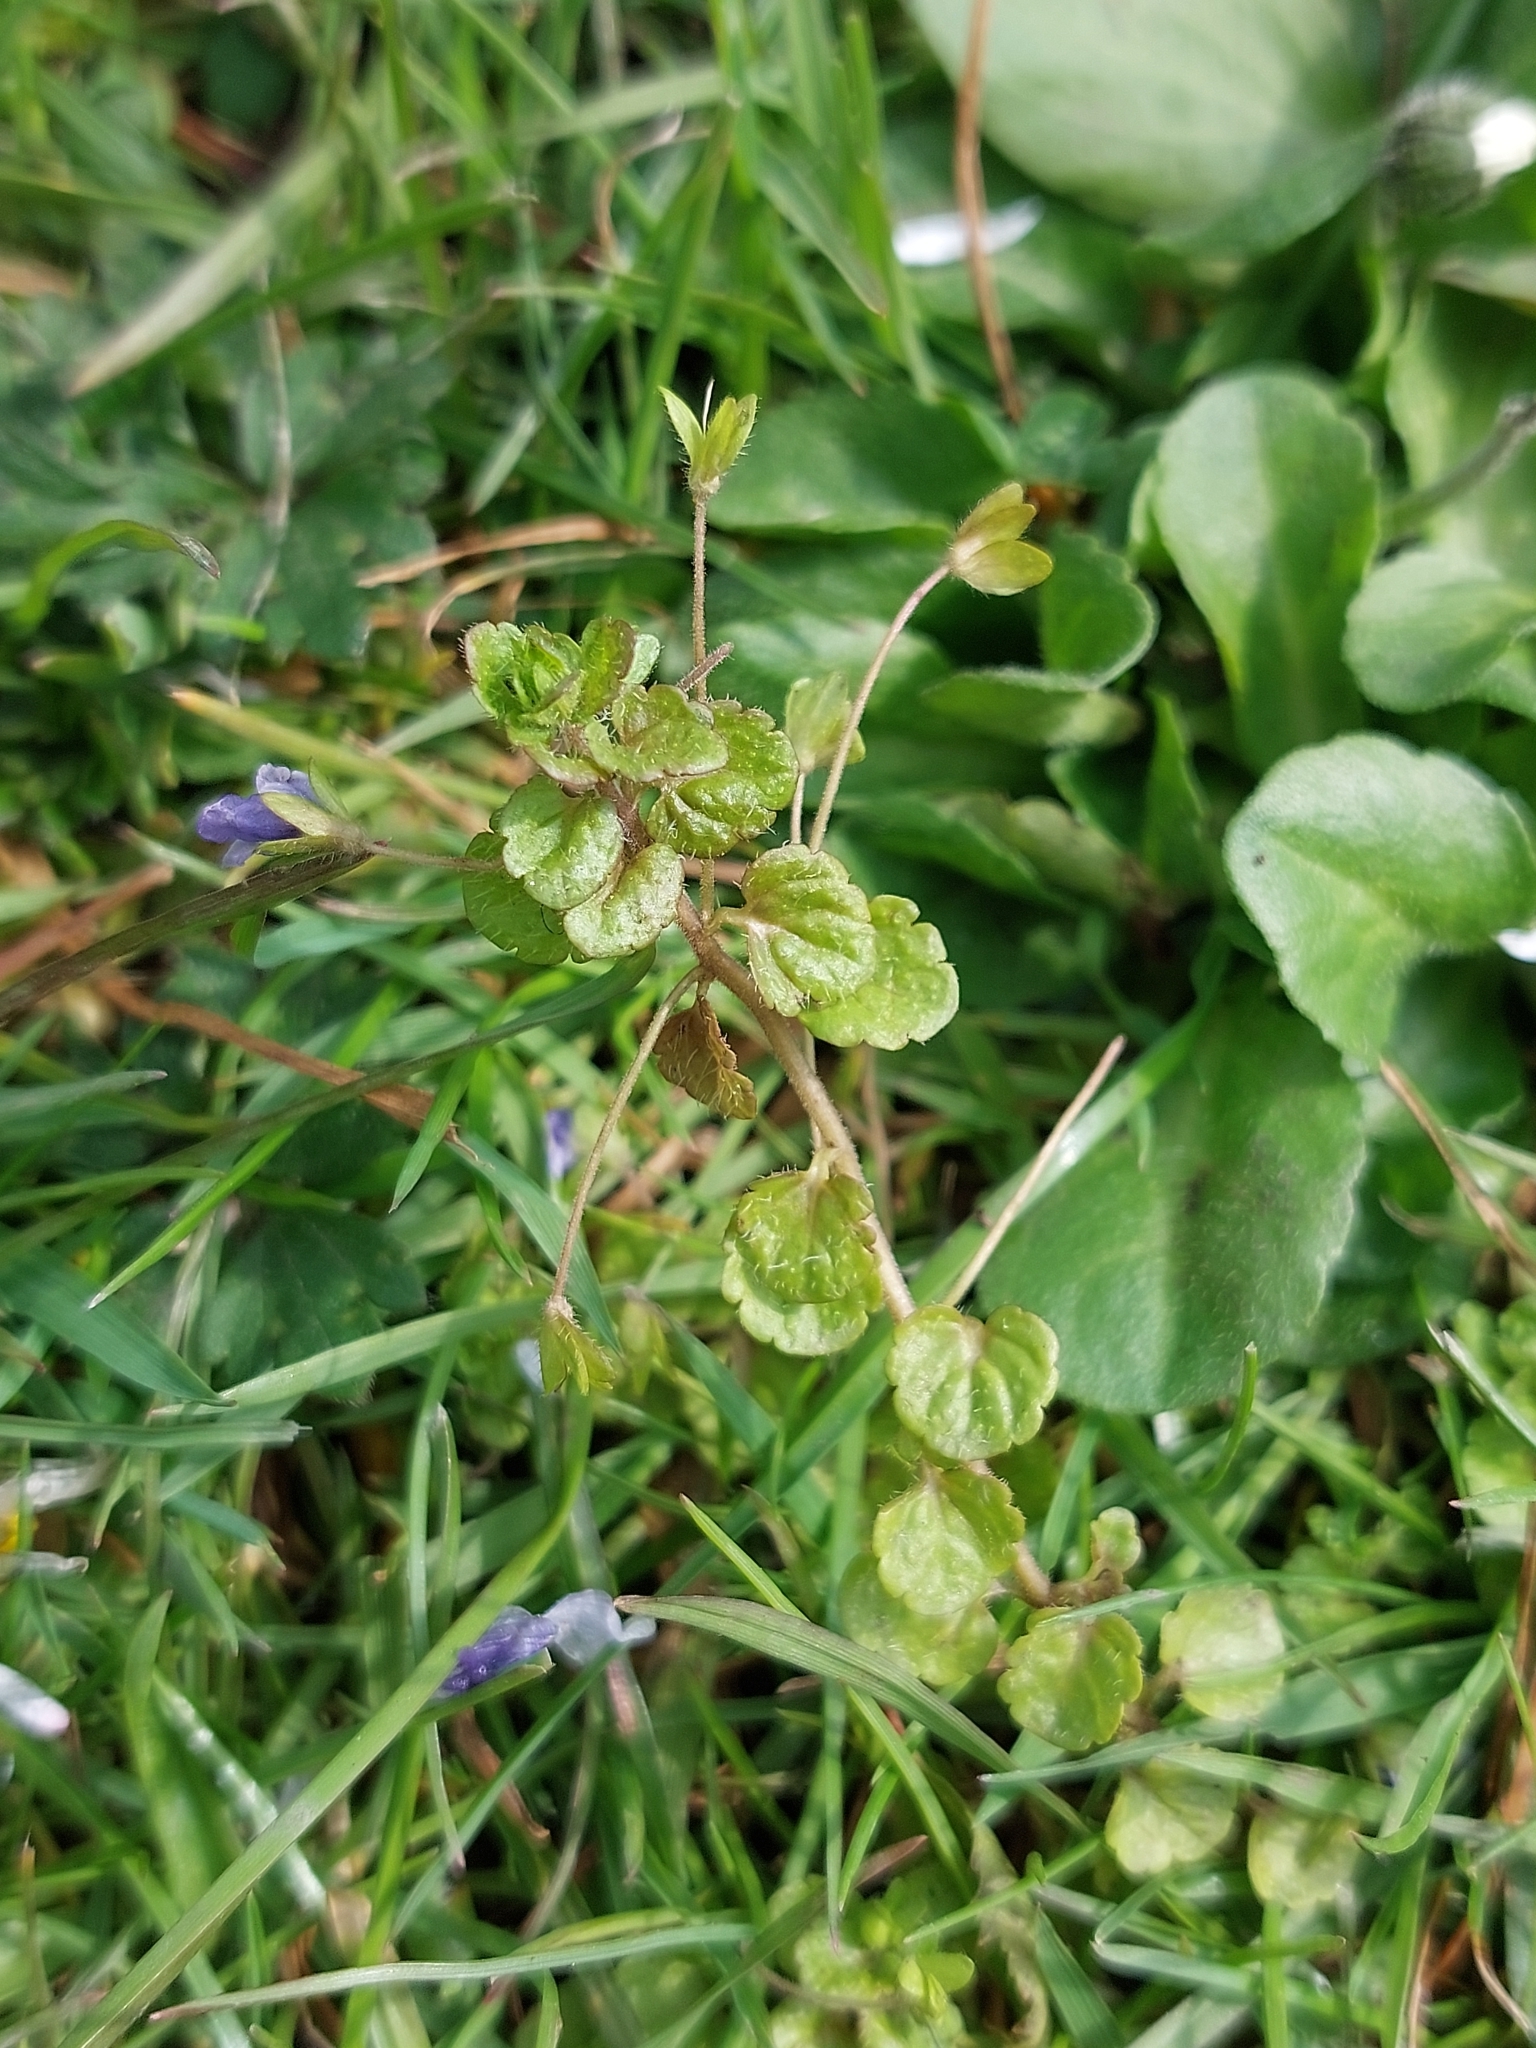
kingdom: Plantae
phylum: Tracheophyta
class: Magnoliopsida
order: Lamiales
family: Plantaginaceae
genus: Veronica
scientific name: Veronica filiformis
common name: Slender speedwell
